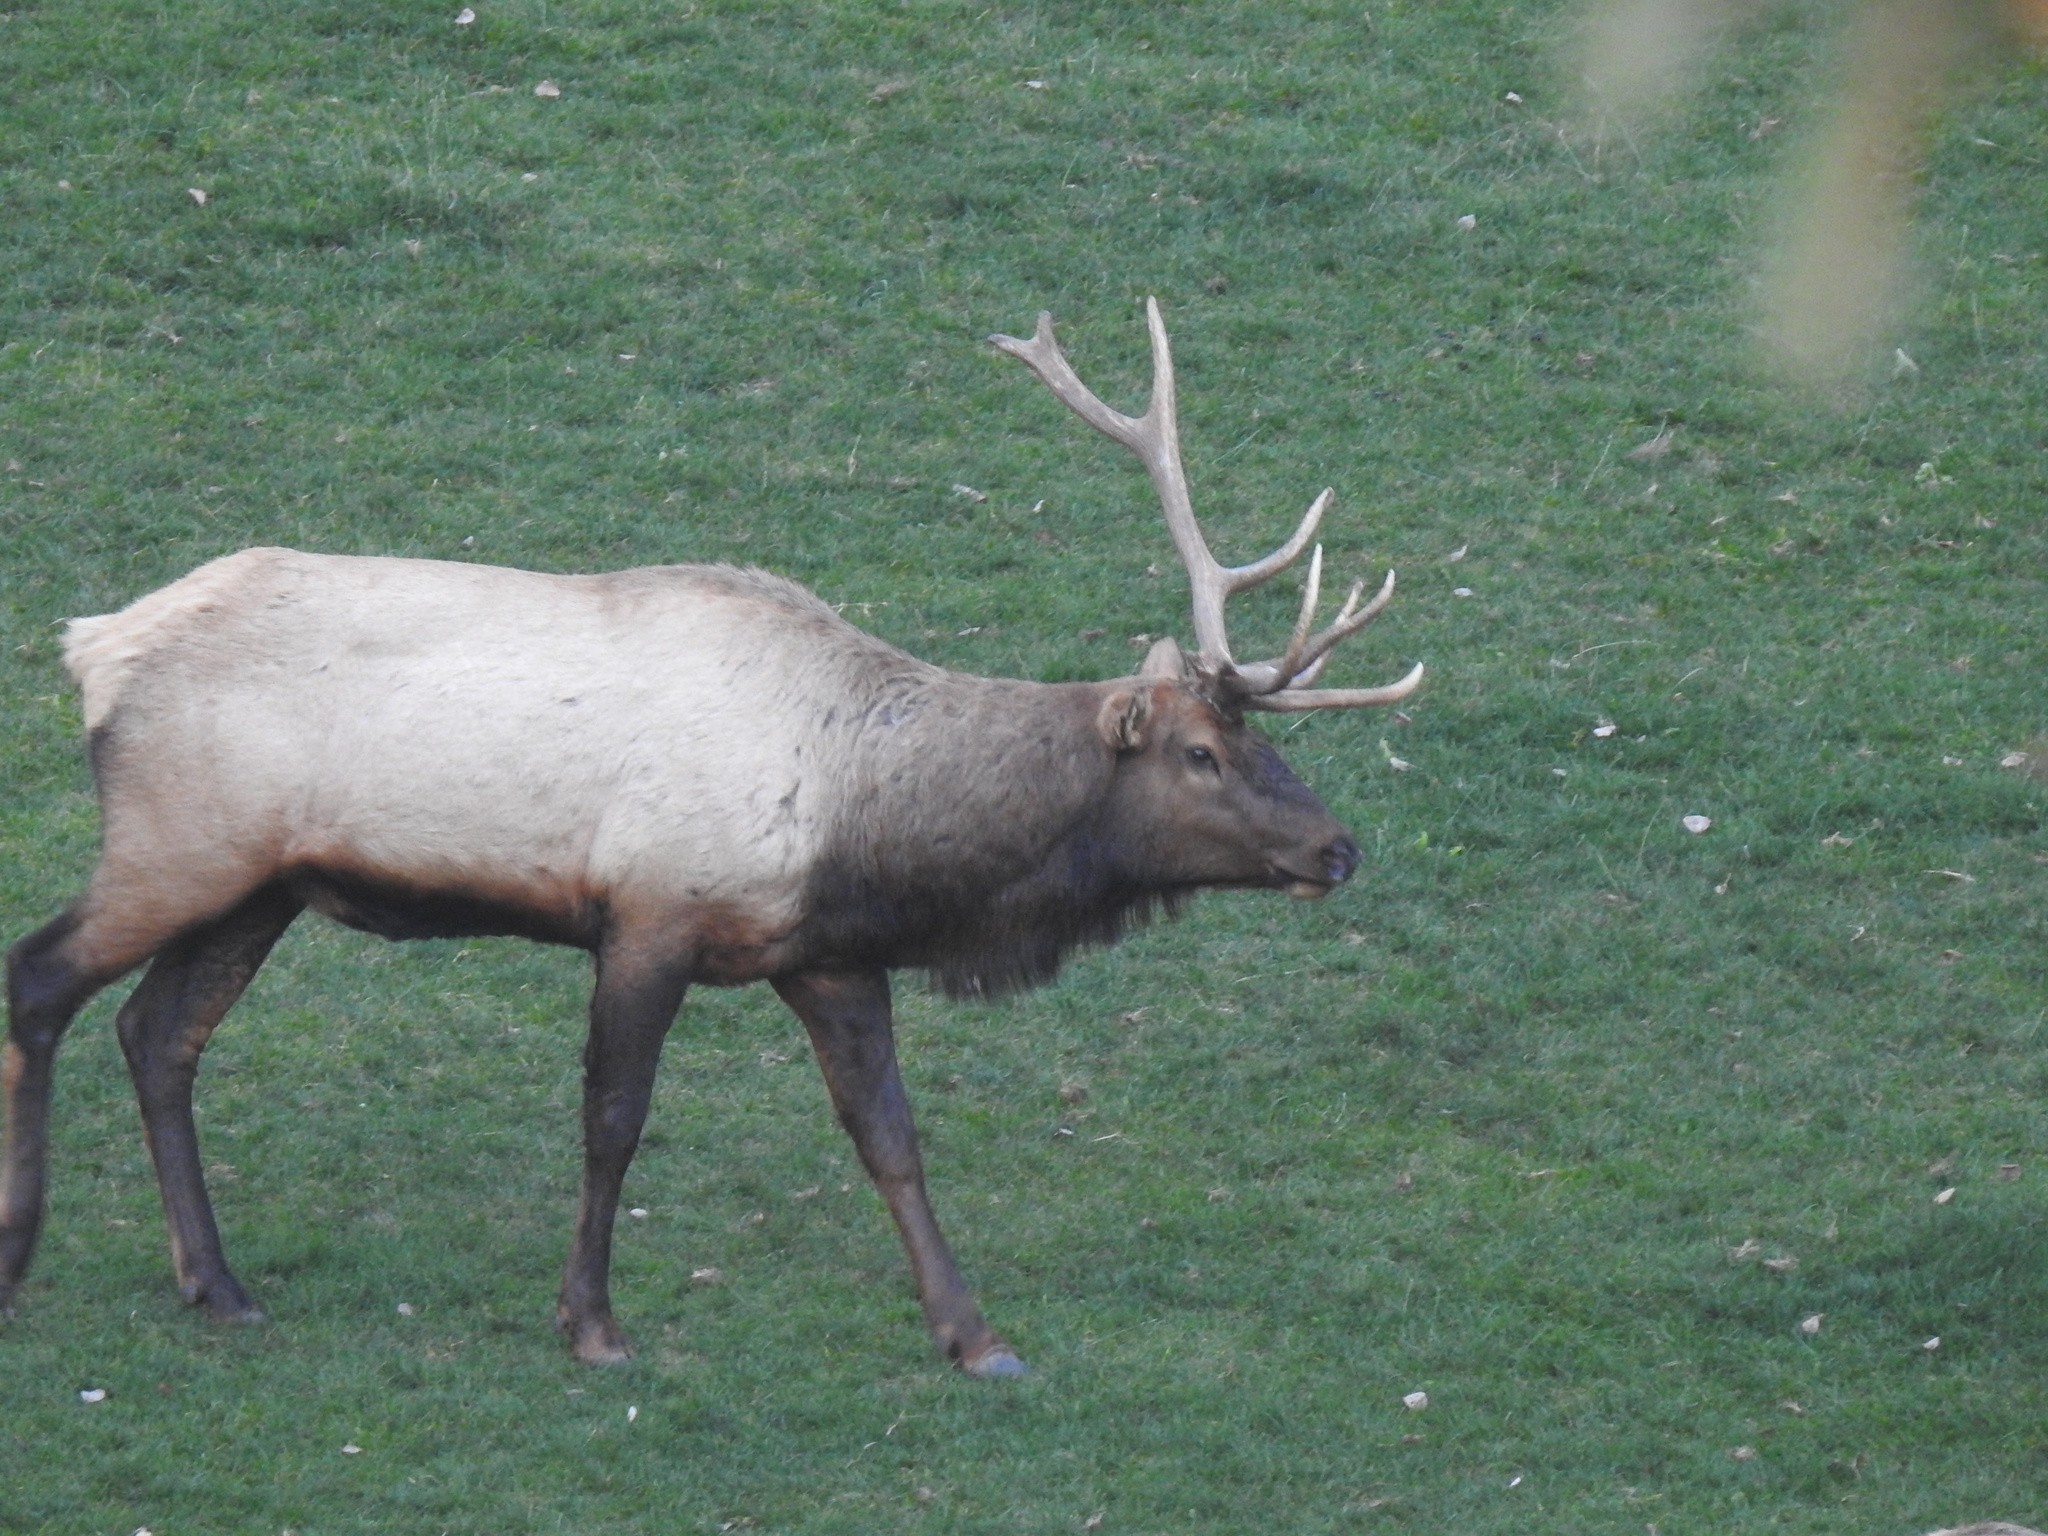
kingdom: Animalia
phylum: Chordata
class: Mammalia
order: Artiodactyla
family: Cervidae
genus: Cervus
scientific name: Cervus elaphus
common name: Red deer
